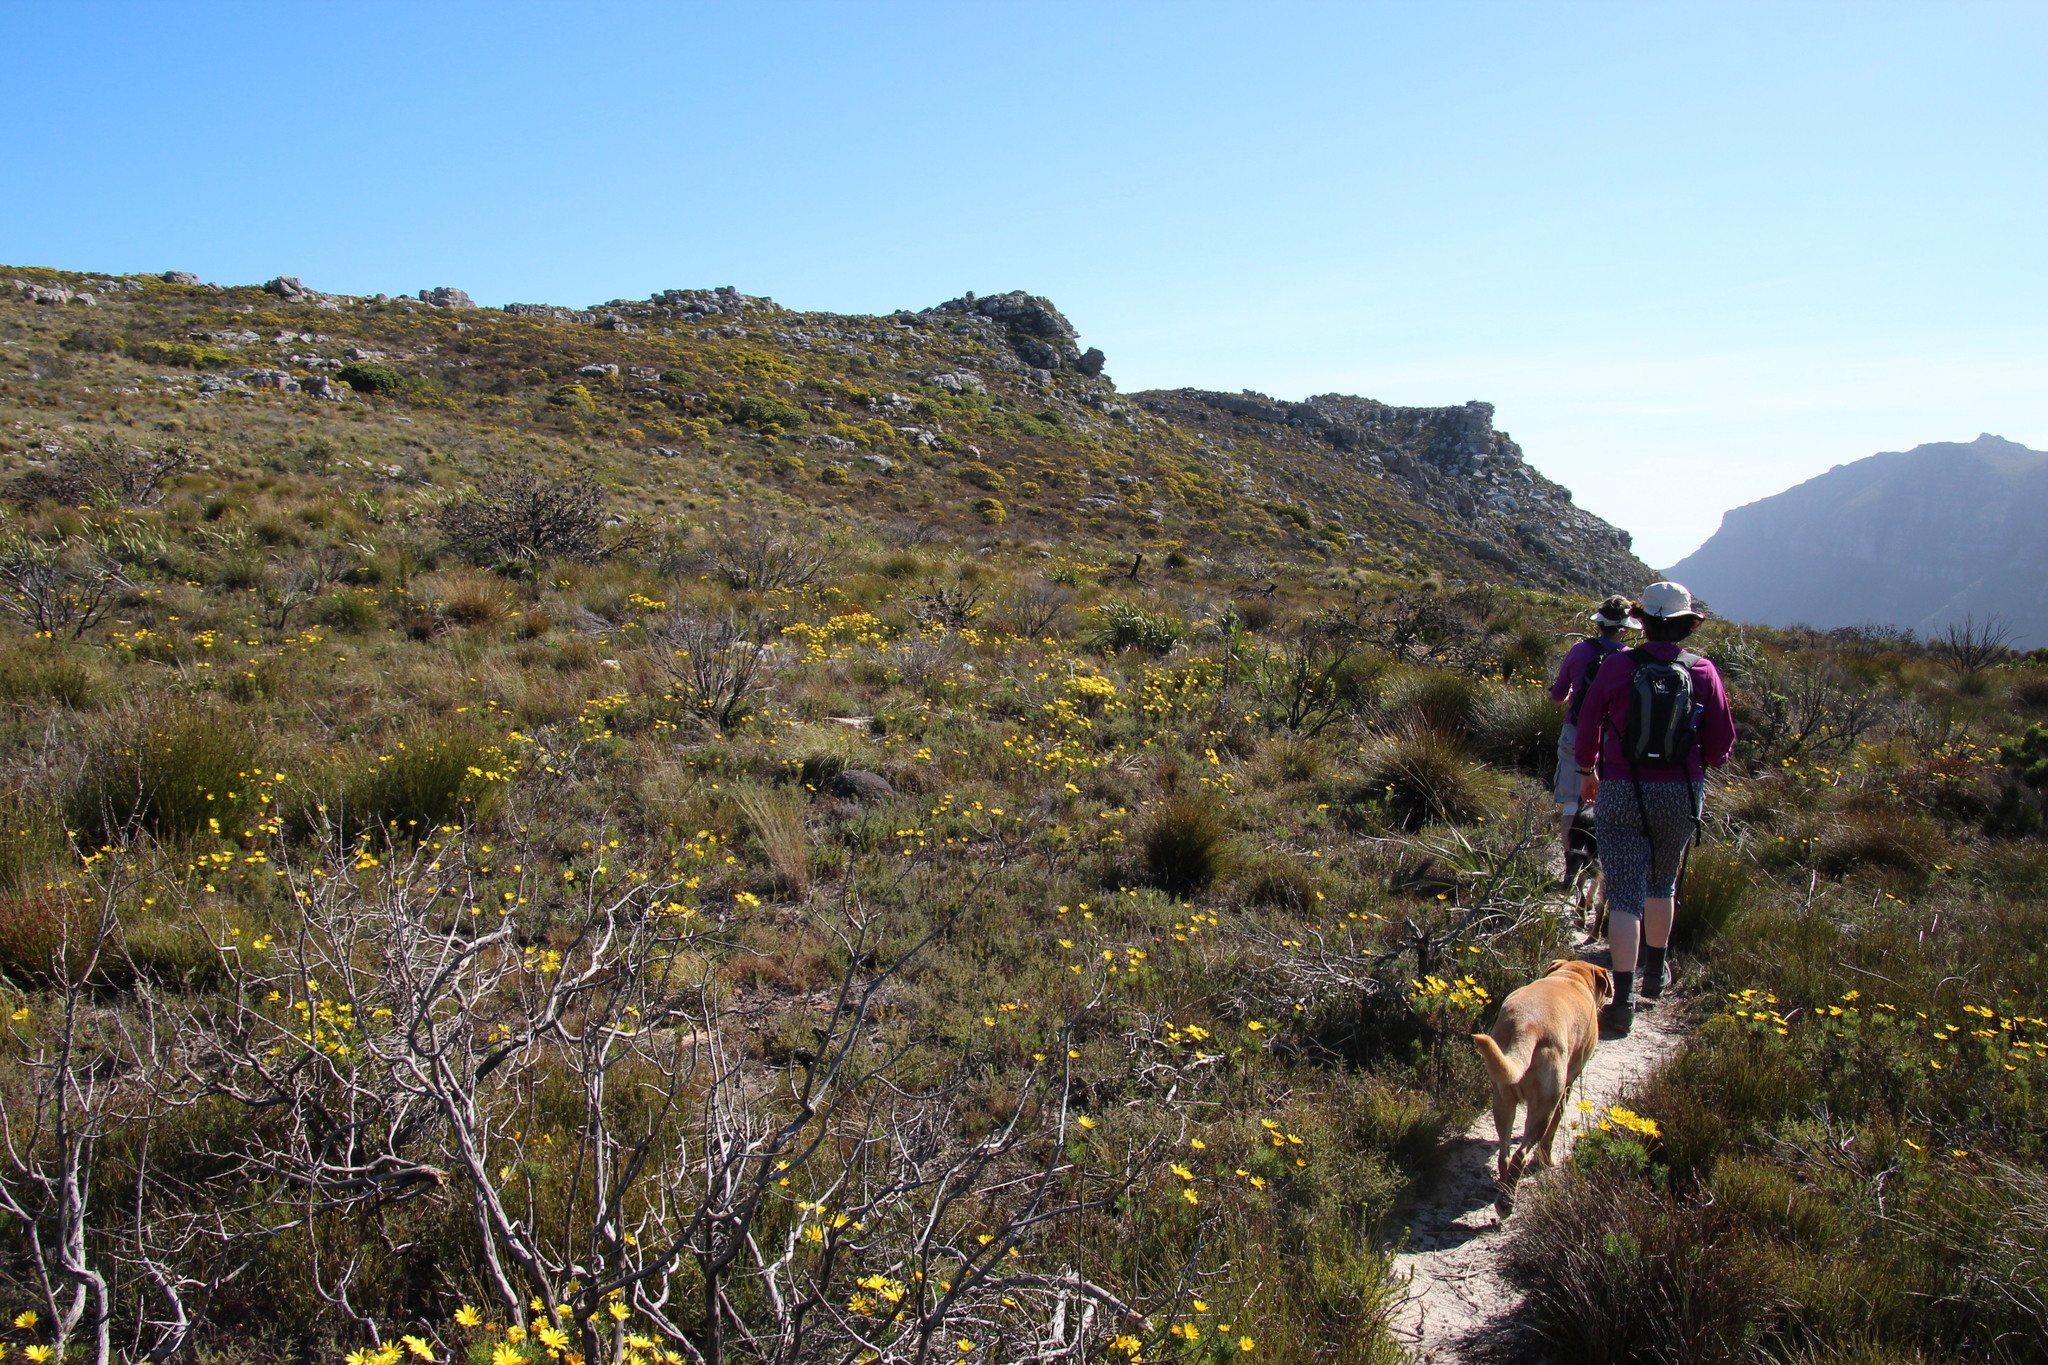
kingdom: Plantae
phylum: Tracheophyta
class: Magnoliopsida
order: Asterales
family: Asteraceae
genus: Euryops
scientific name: Euryops abrotanifolius
